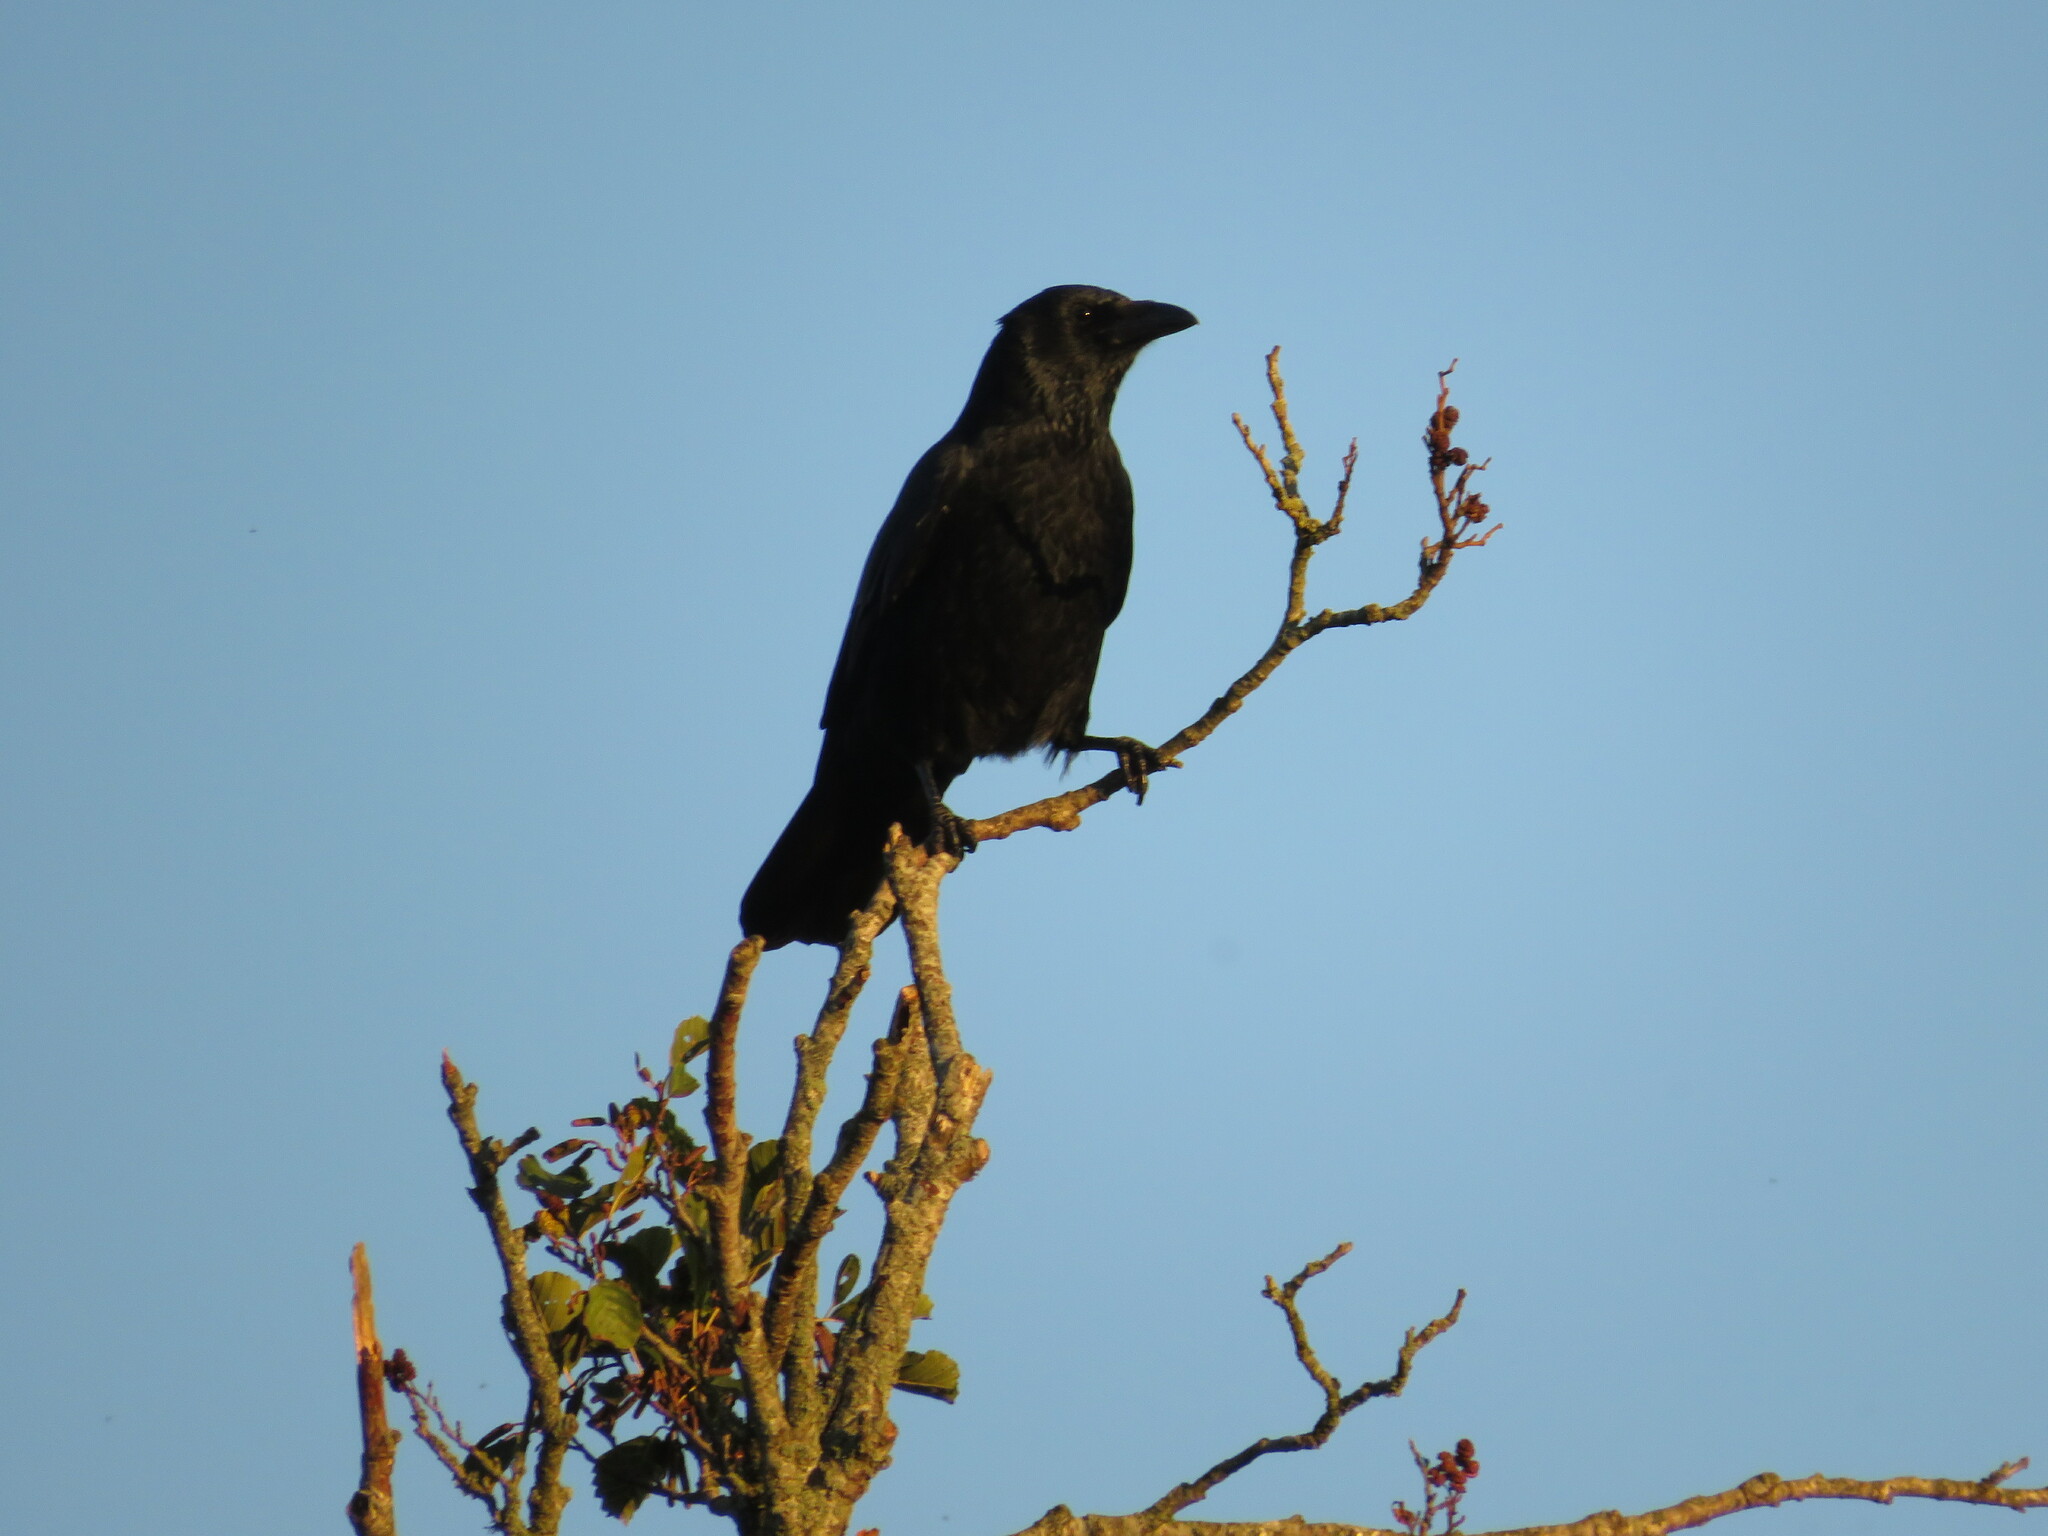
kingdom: Animalia
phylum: Chordata
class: Aves
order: Passeriformes
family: Corvidae
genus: Corvus
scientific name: Corvus corone
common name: Carrion crow
